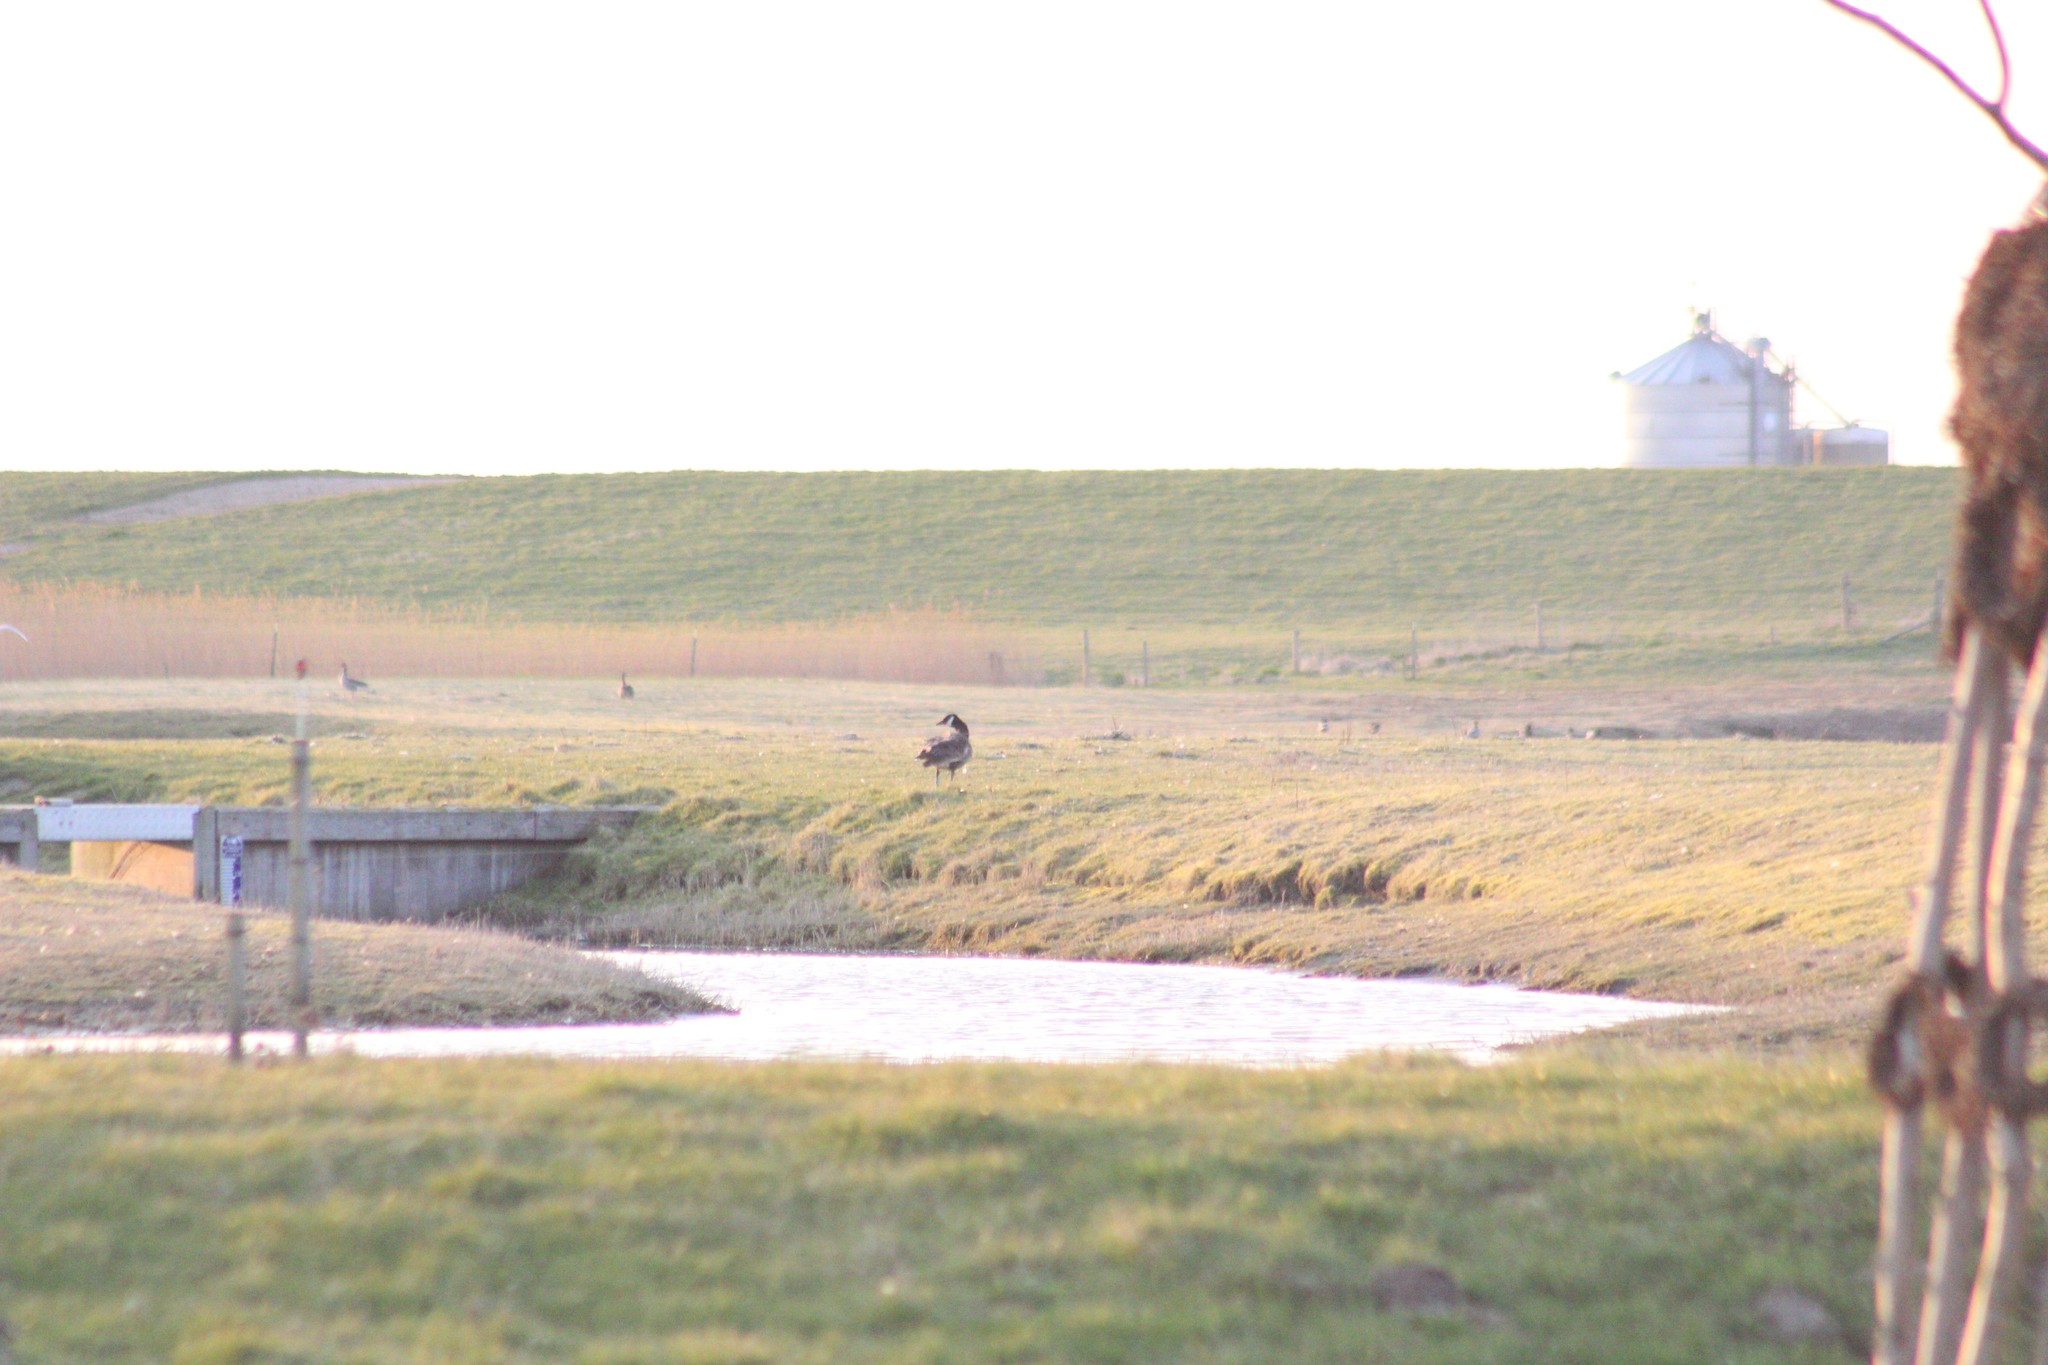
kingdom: Animalia
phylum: Chordata
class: Aves
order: Anseriformes
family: Anatidae
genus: Branta
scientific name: Branta canadensis
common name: Canada goose
